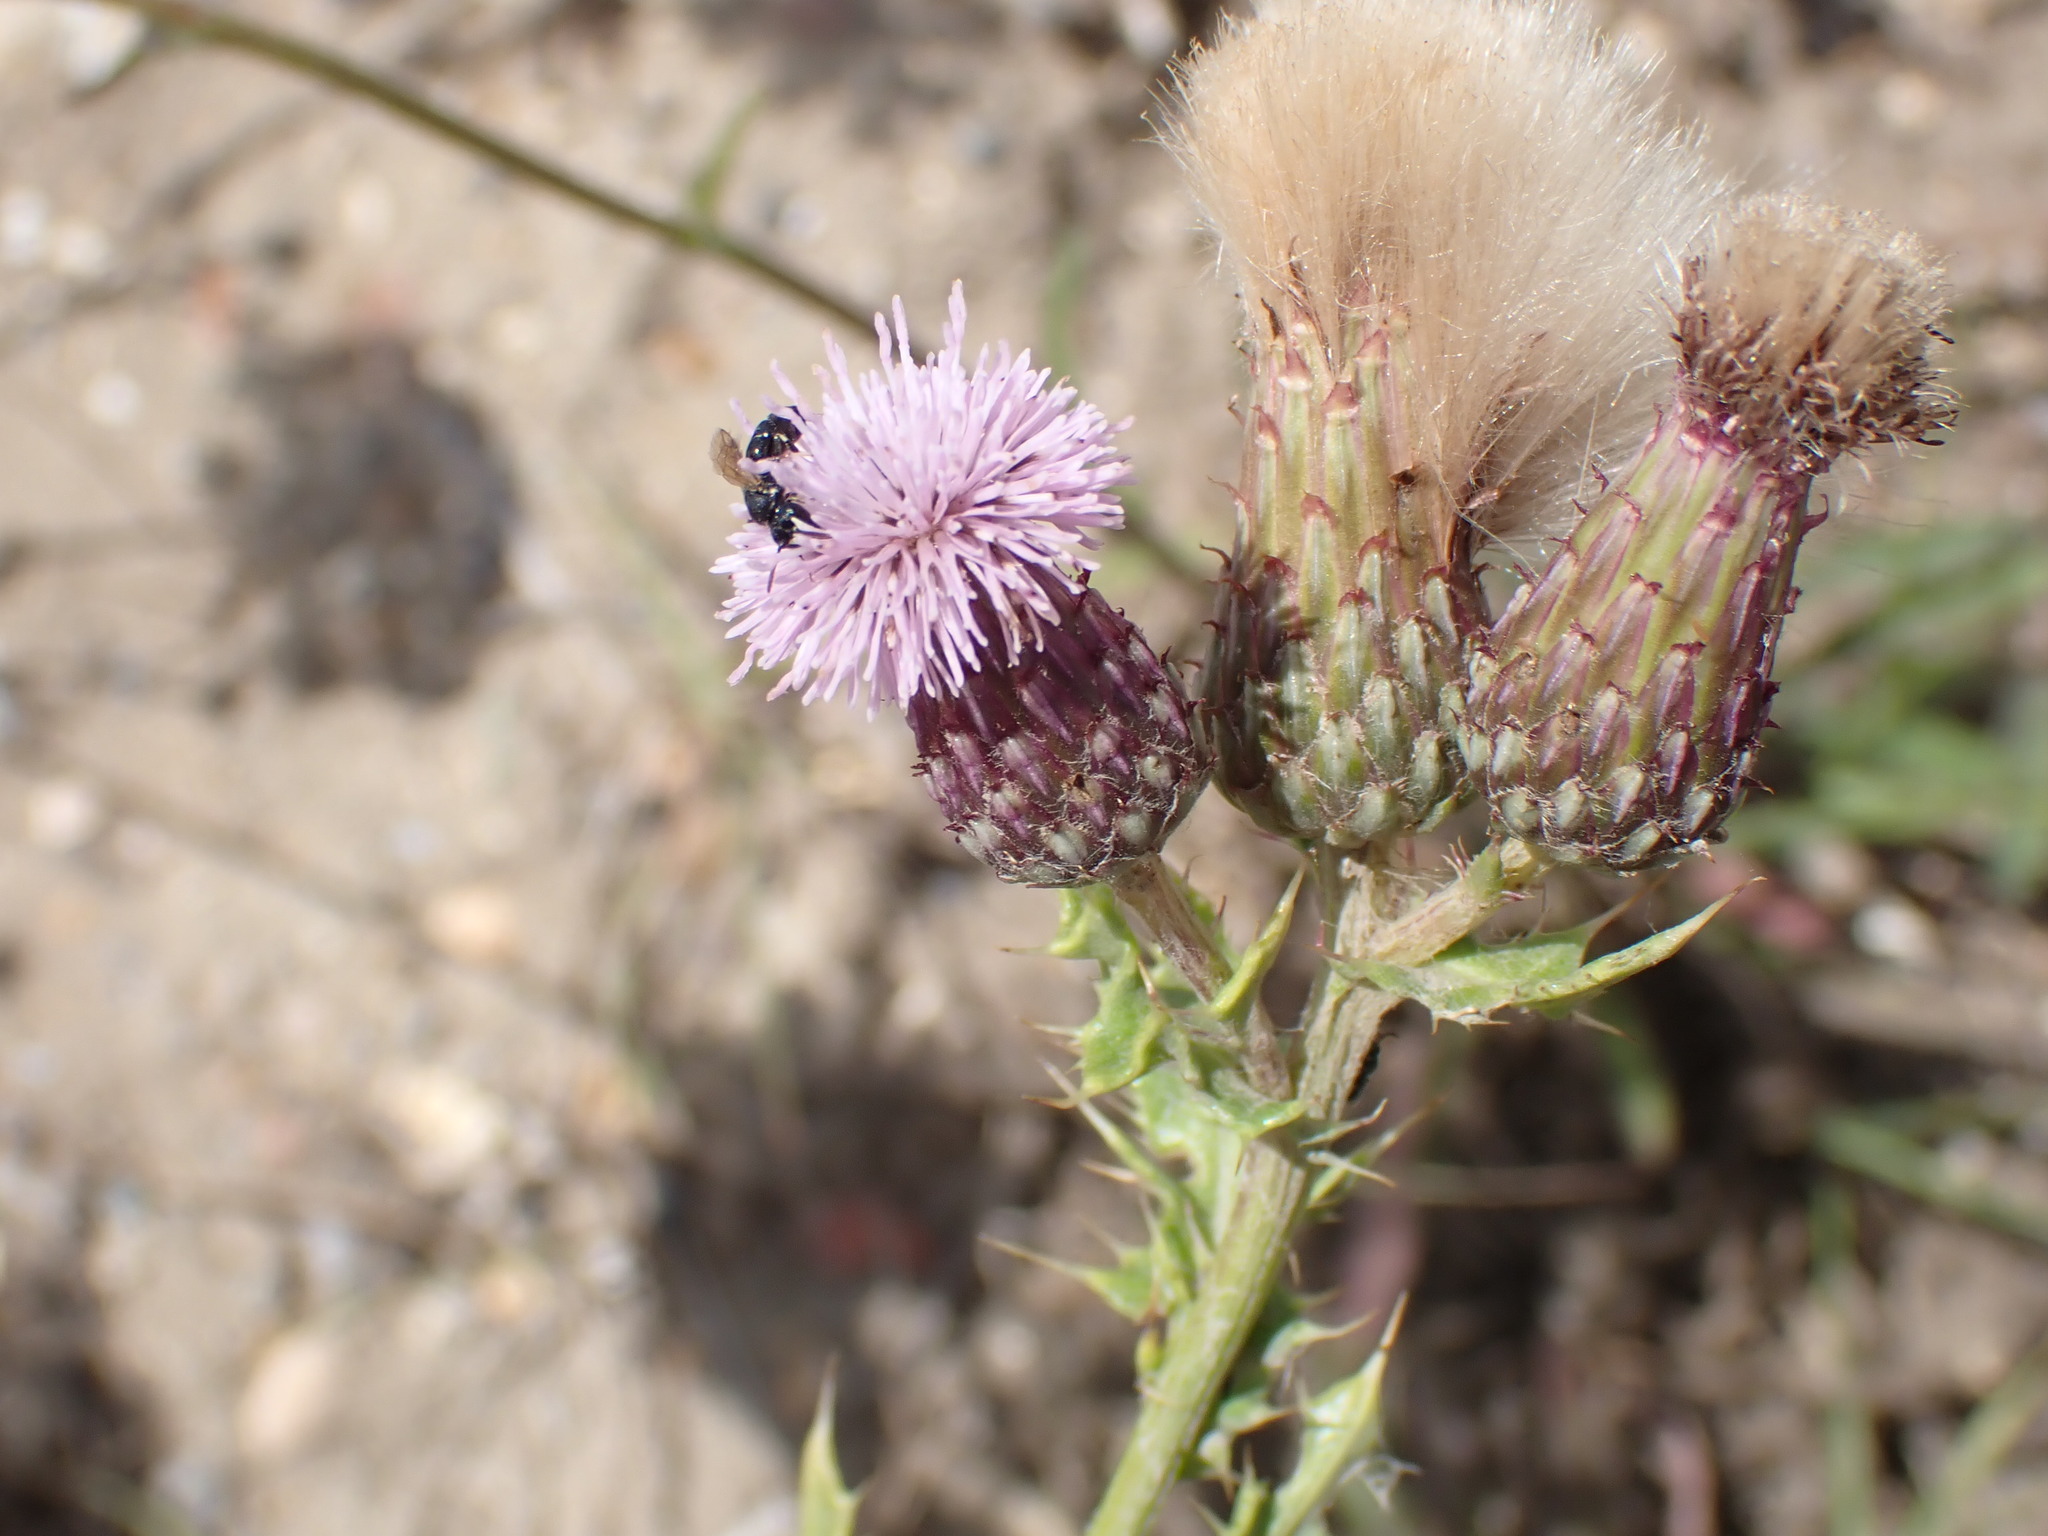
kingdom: Plantae
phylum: Tracheophyta
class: Magnoliopsida
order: Asterales
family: Asteraceae
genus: Cirsium
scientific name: Cirsium arvense
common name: Creeping thistle
